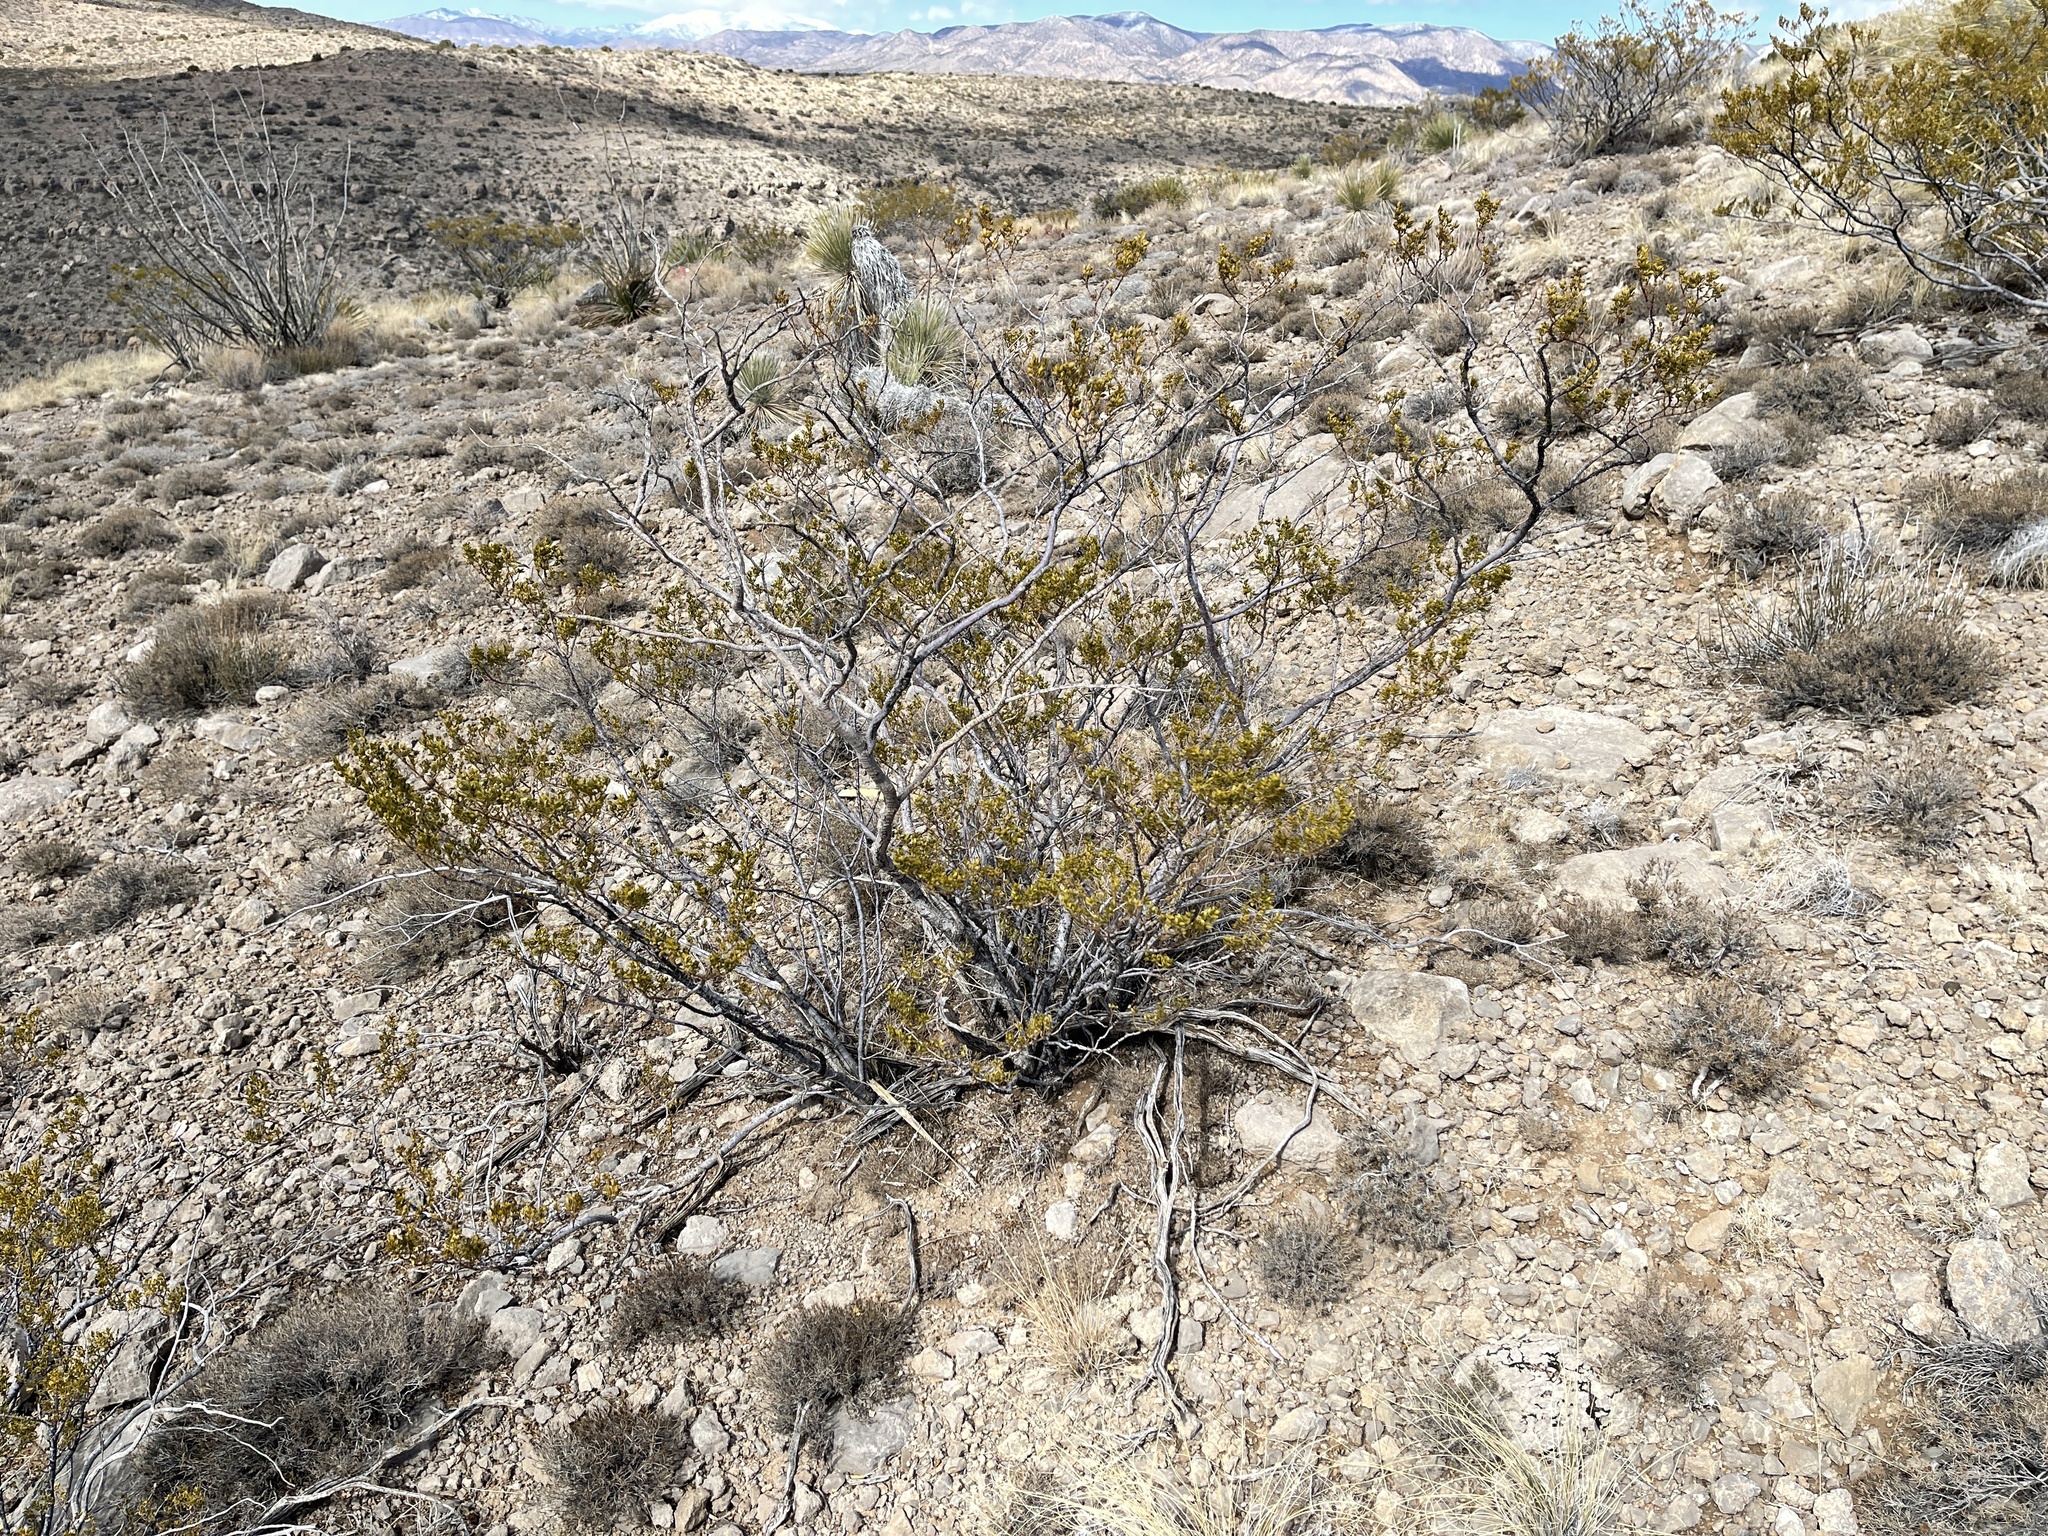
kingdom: Plantae
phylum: Tracheophyta
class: Magnoliopsida
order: Zygophyllales
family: Zygophyllaceae
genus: Larrea
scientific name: Larrea tridentata
